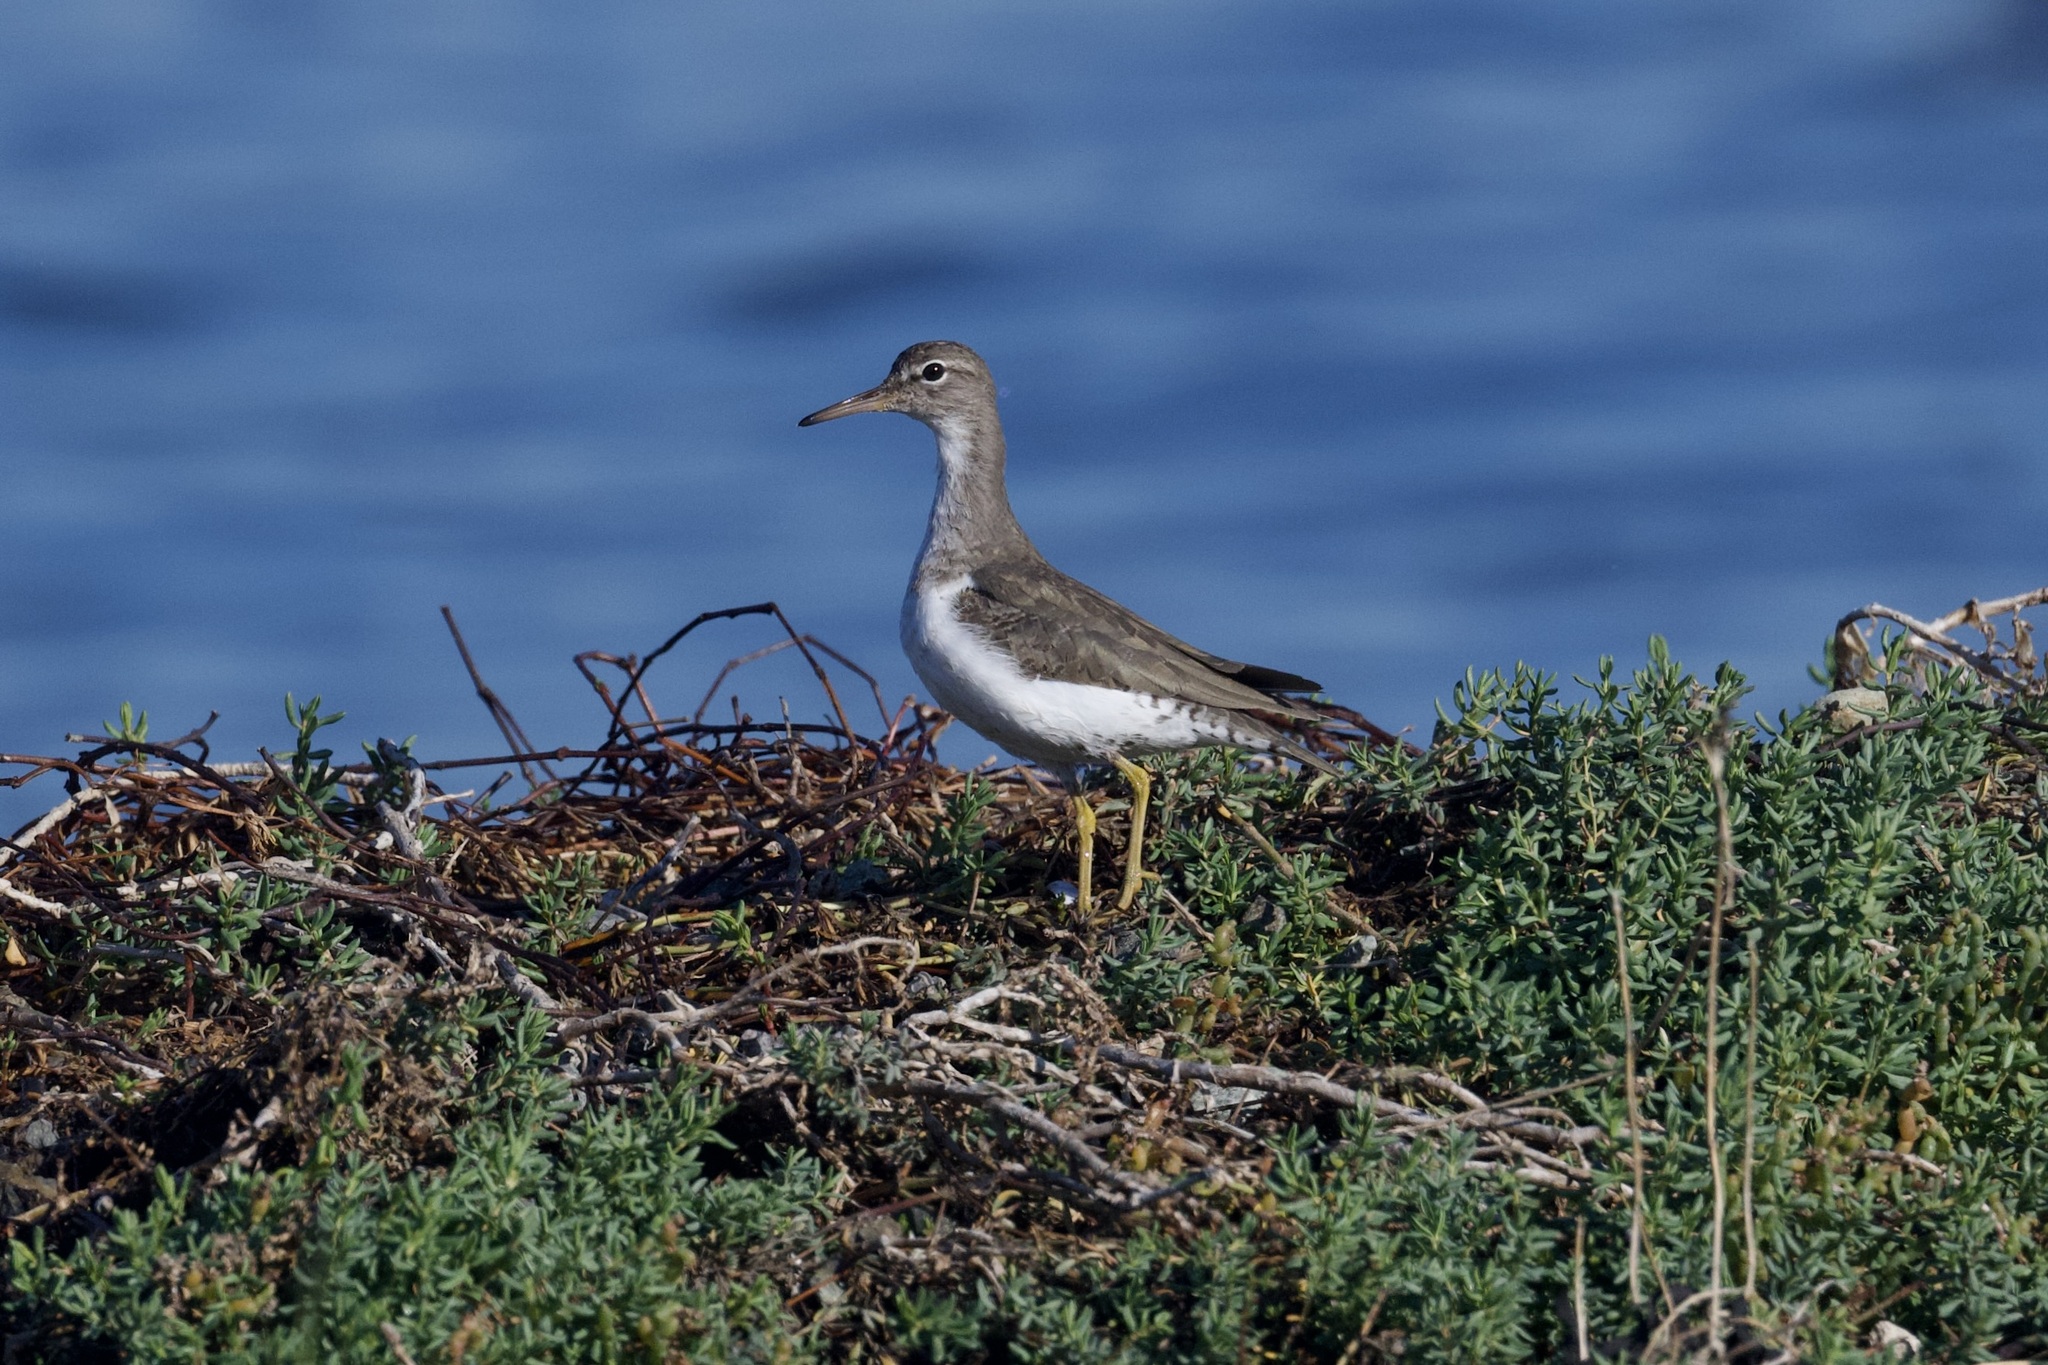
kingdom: Animalia
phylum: Chordata
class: Aves
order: Charadriiformes
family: Scolopacidae
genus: Actitis
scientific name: Actitis macularius
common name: Spotted sandpiper
